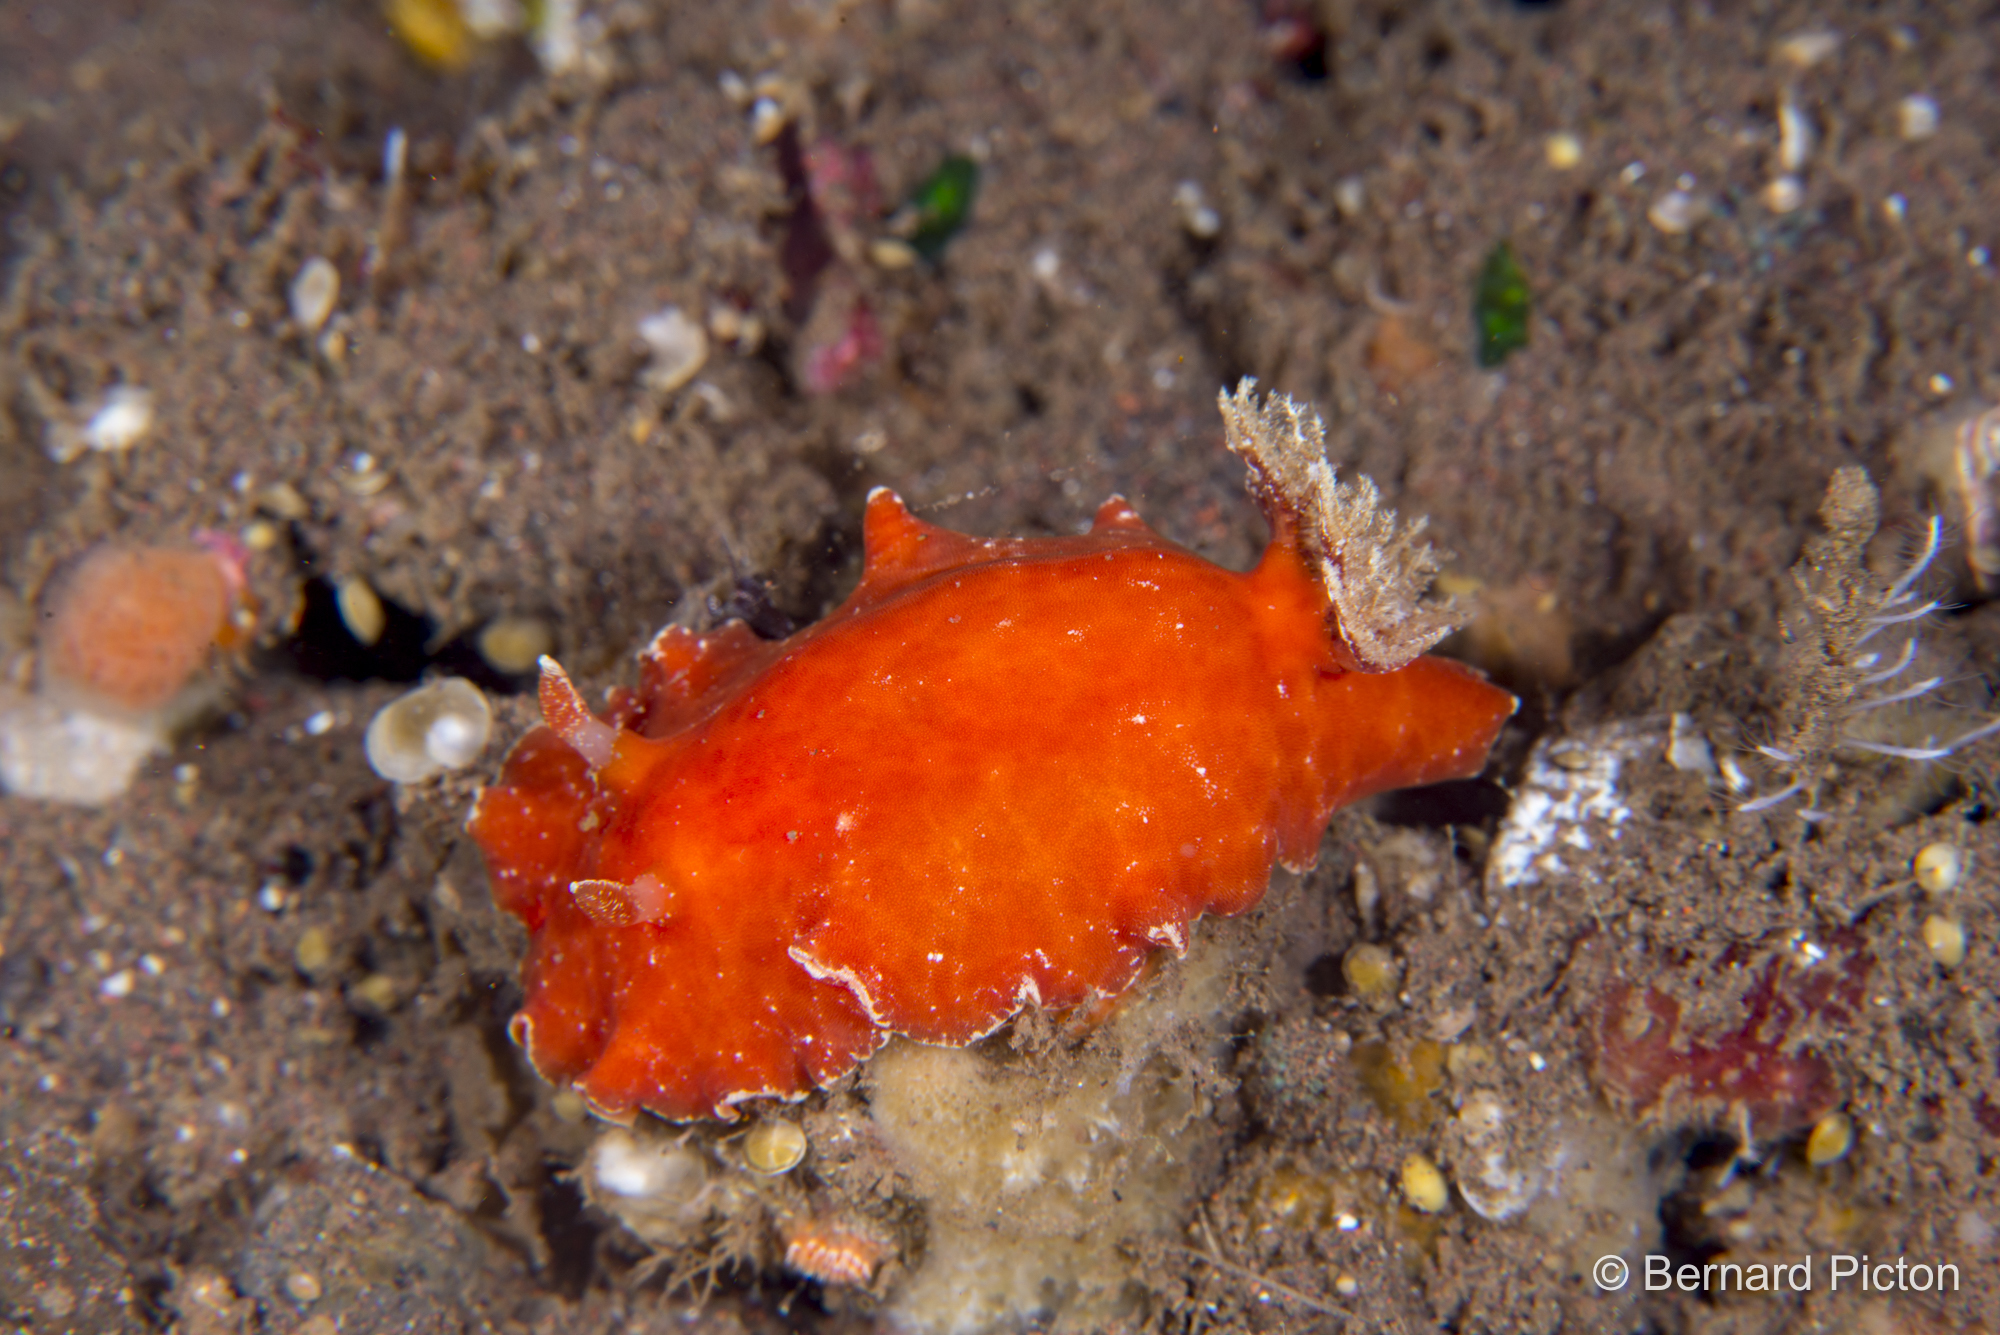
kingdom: Animalia
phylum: Mollusca
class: Gastropoda
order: Nudibranchia
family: Discodorididae
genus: Platydoris
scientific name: Platydoris sanguinea
